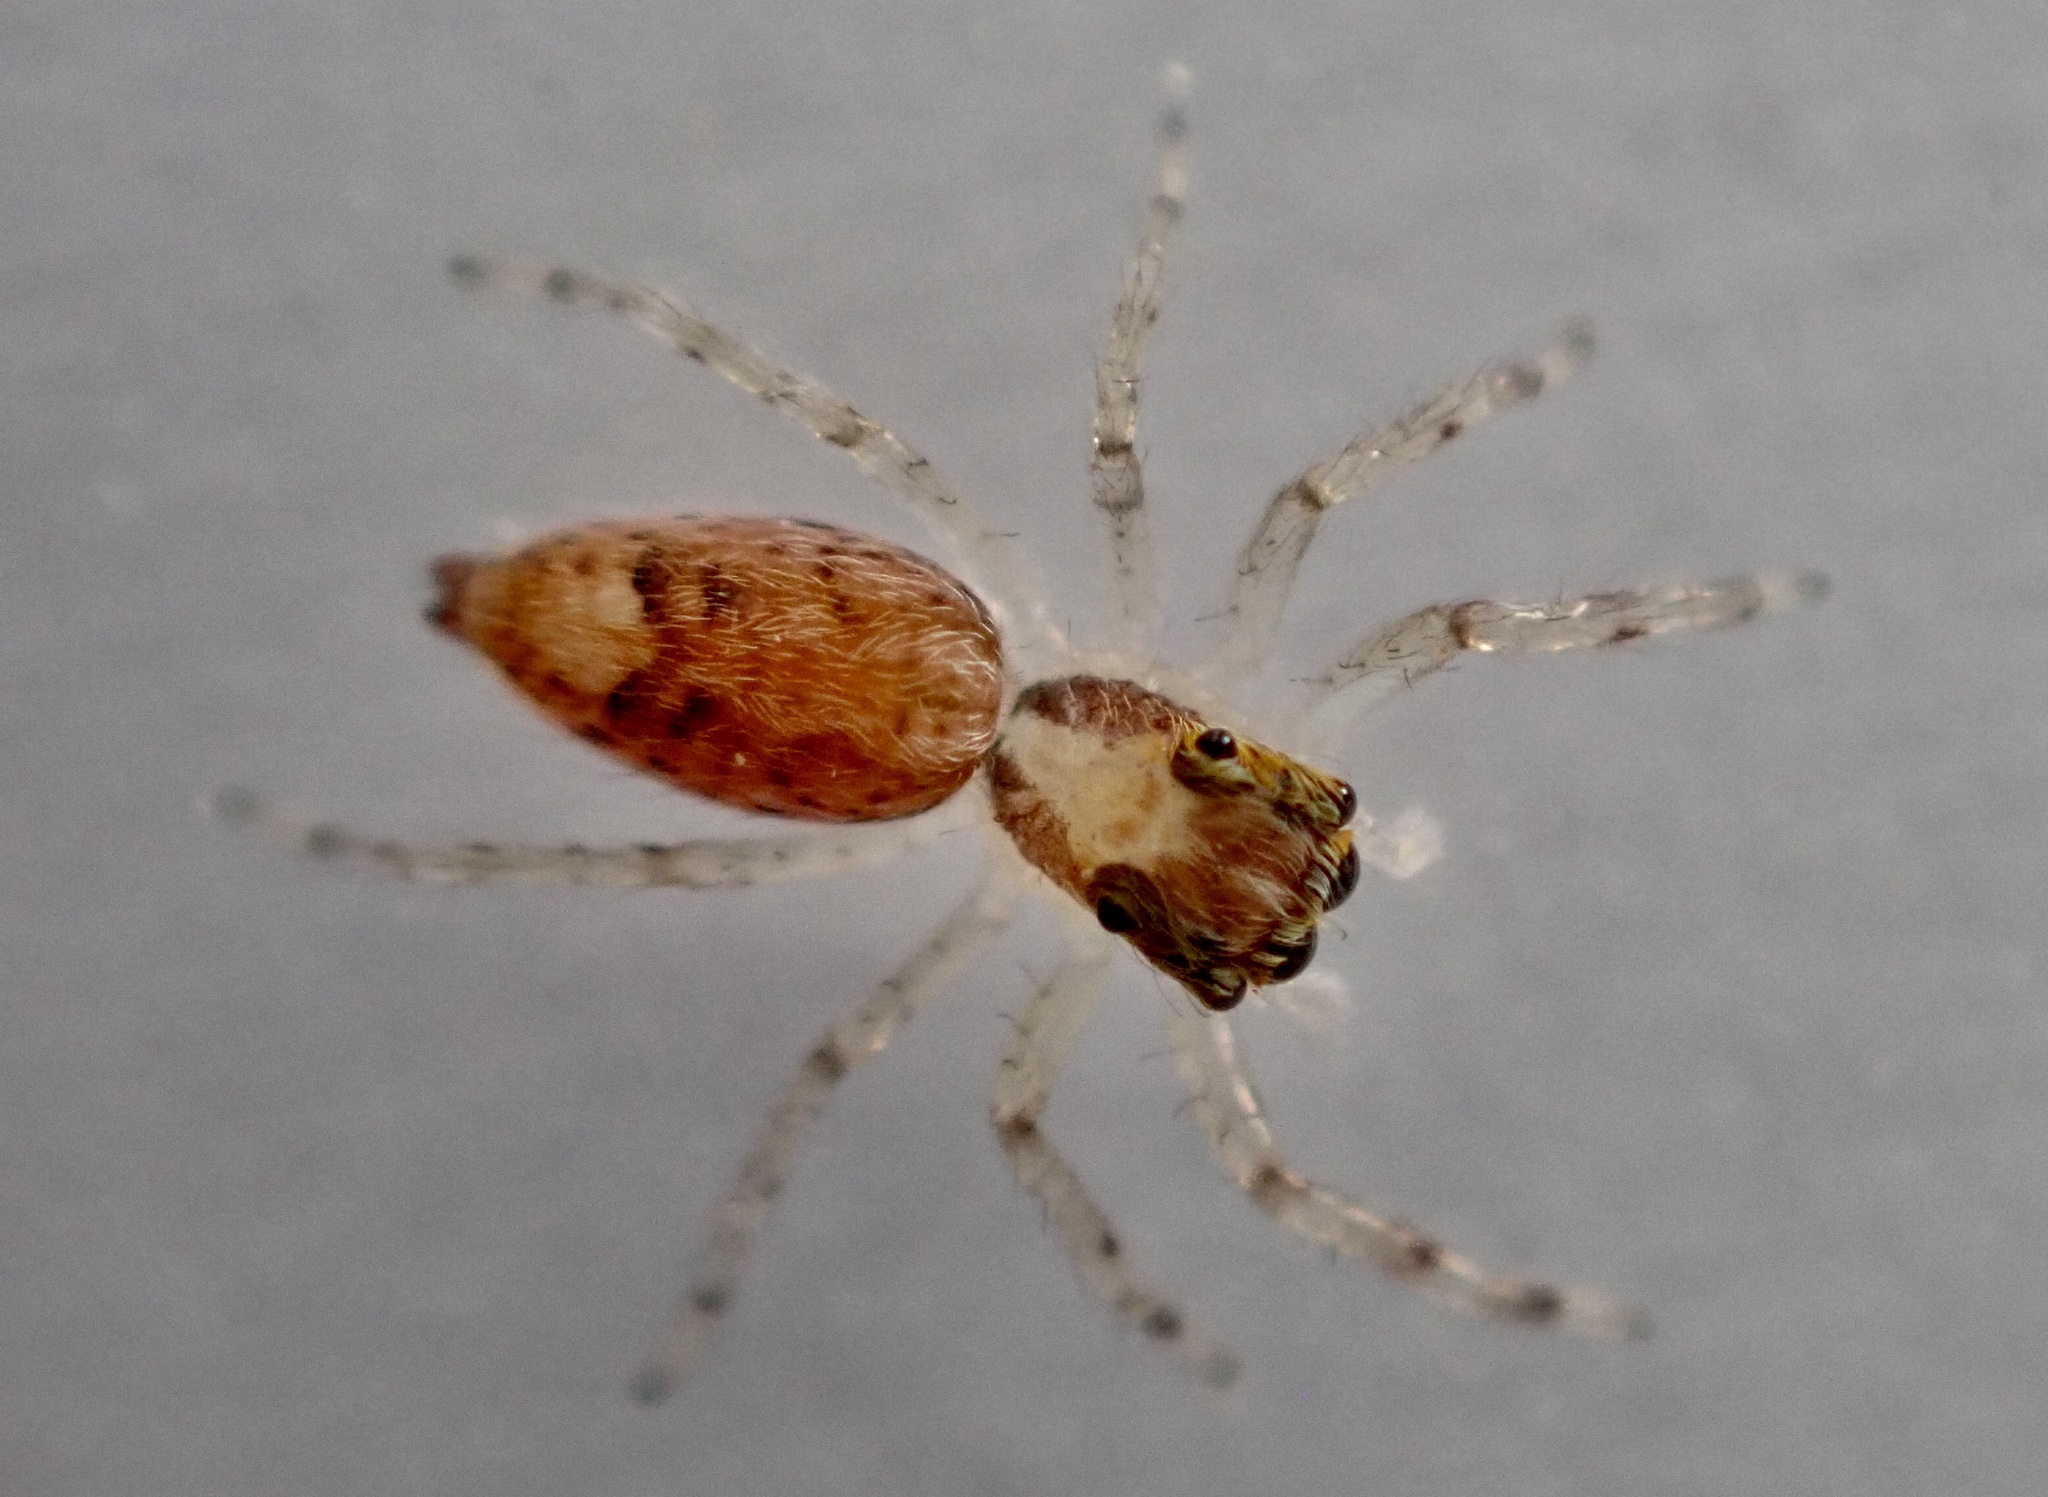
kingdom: Animalia
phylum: Arthropoda
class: Arachnida
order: Araneae
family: Salticidae
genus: Helpis
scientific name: Helpis minitabunda
